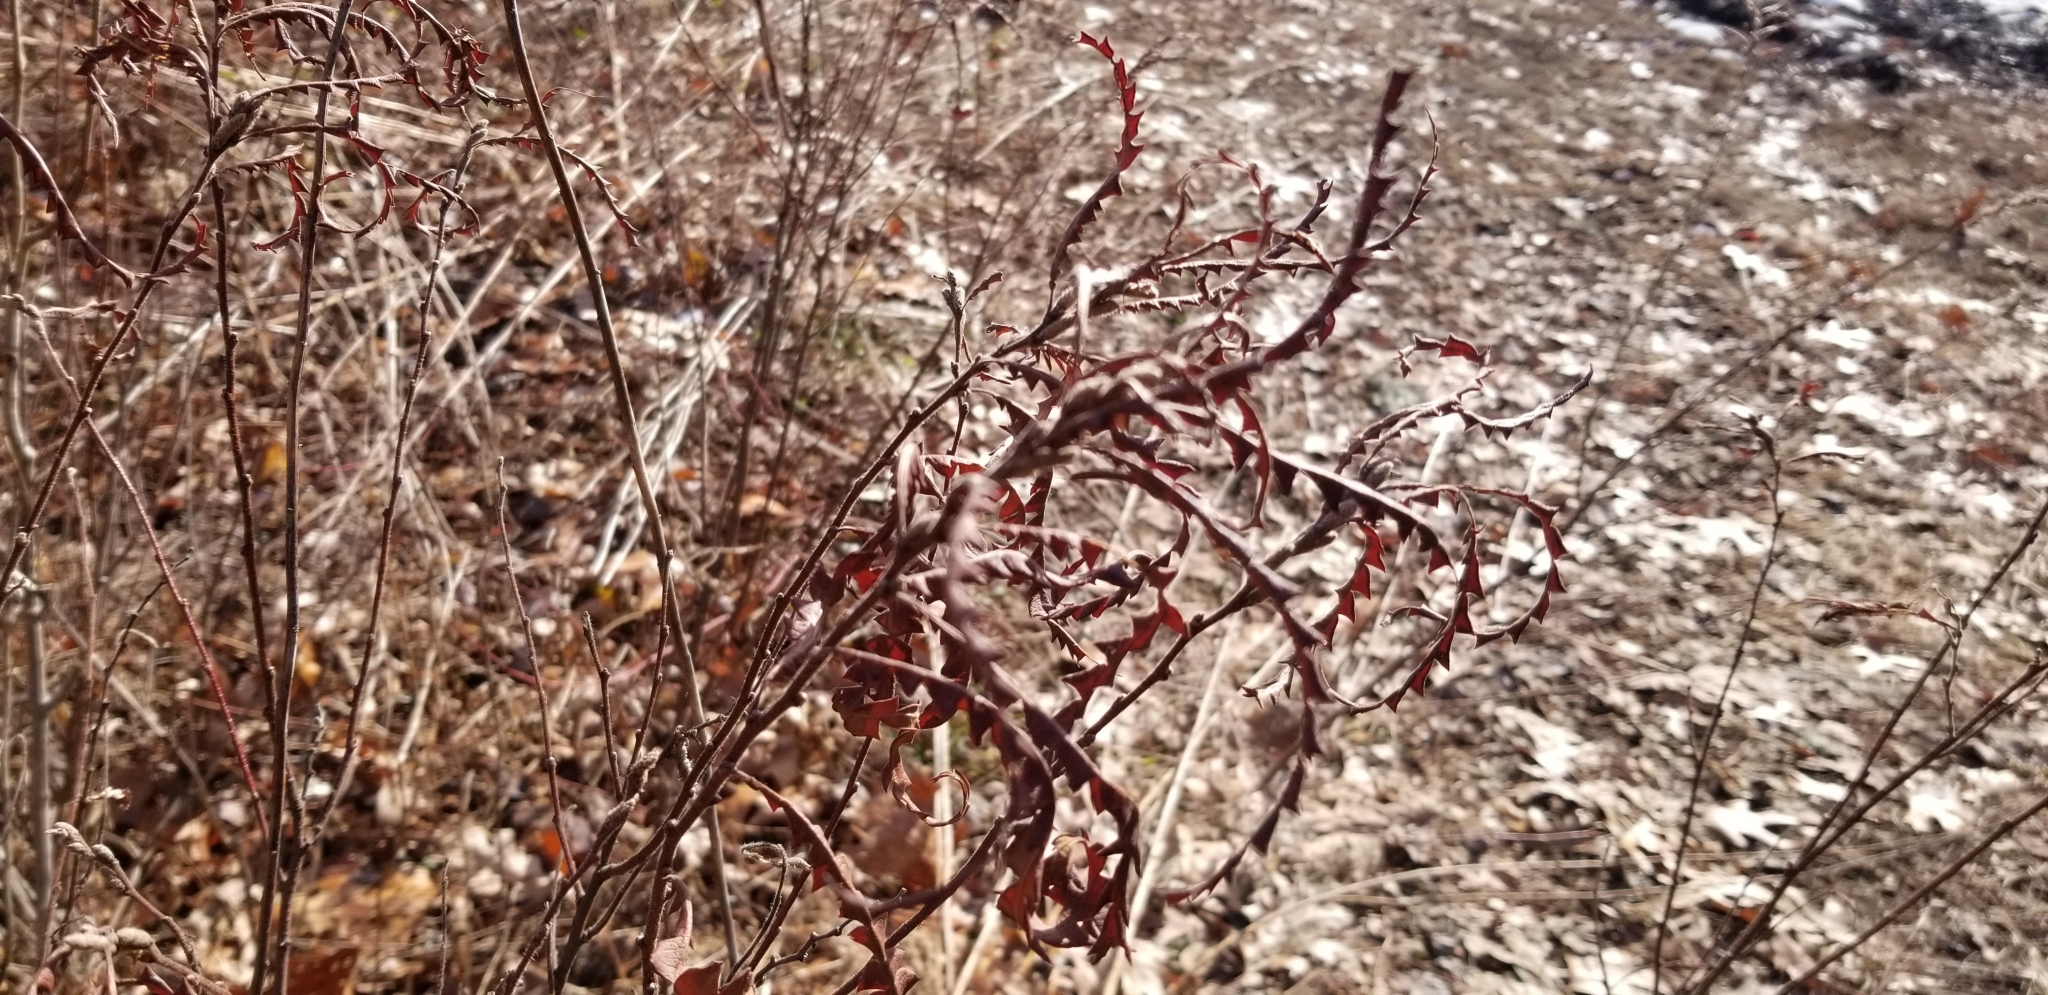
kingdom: Plantae
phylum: Tracheophyta
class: Magnoliopsida
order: Fagales
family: Myricaceae
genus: Comptonia
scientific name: Comptonia peregrina
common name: Sweet-fern
